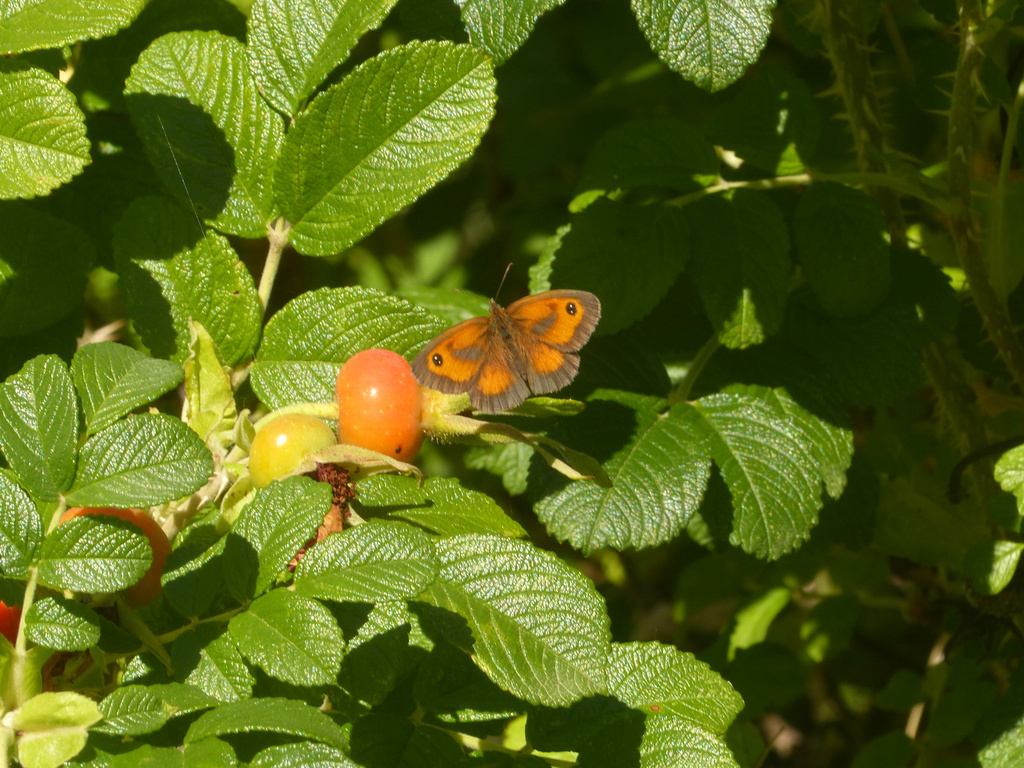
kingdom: Animalia
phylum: Arthropoda
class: Insecta
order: Lepidoptera
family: Nymphalidae
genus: Pyronia
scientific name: Pyronia tithonus
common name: Gatekeeper
